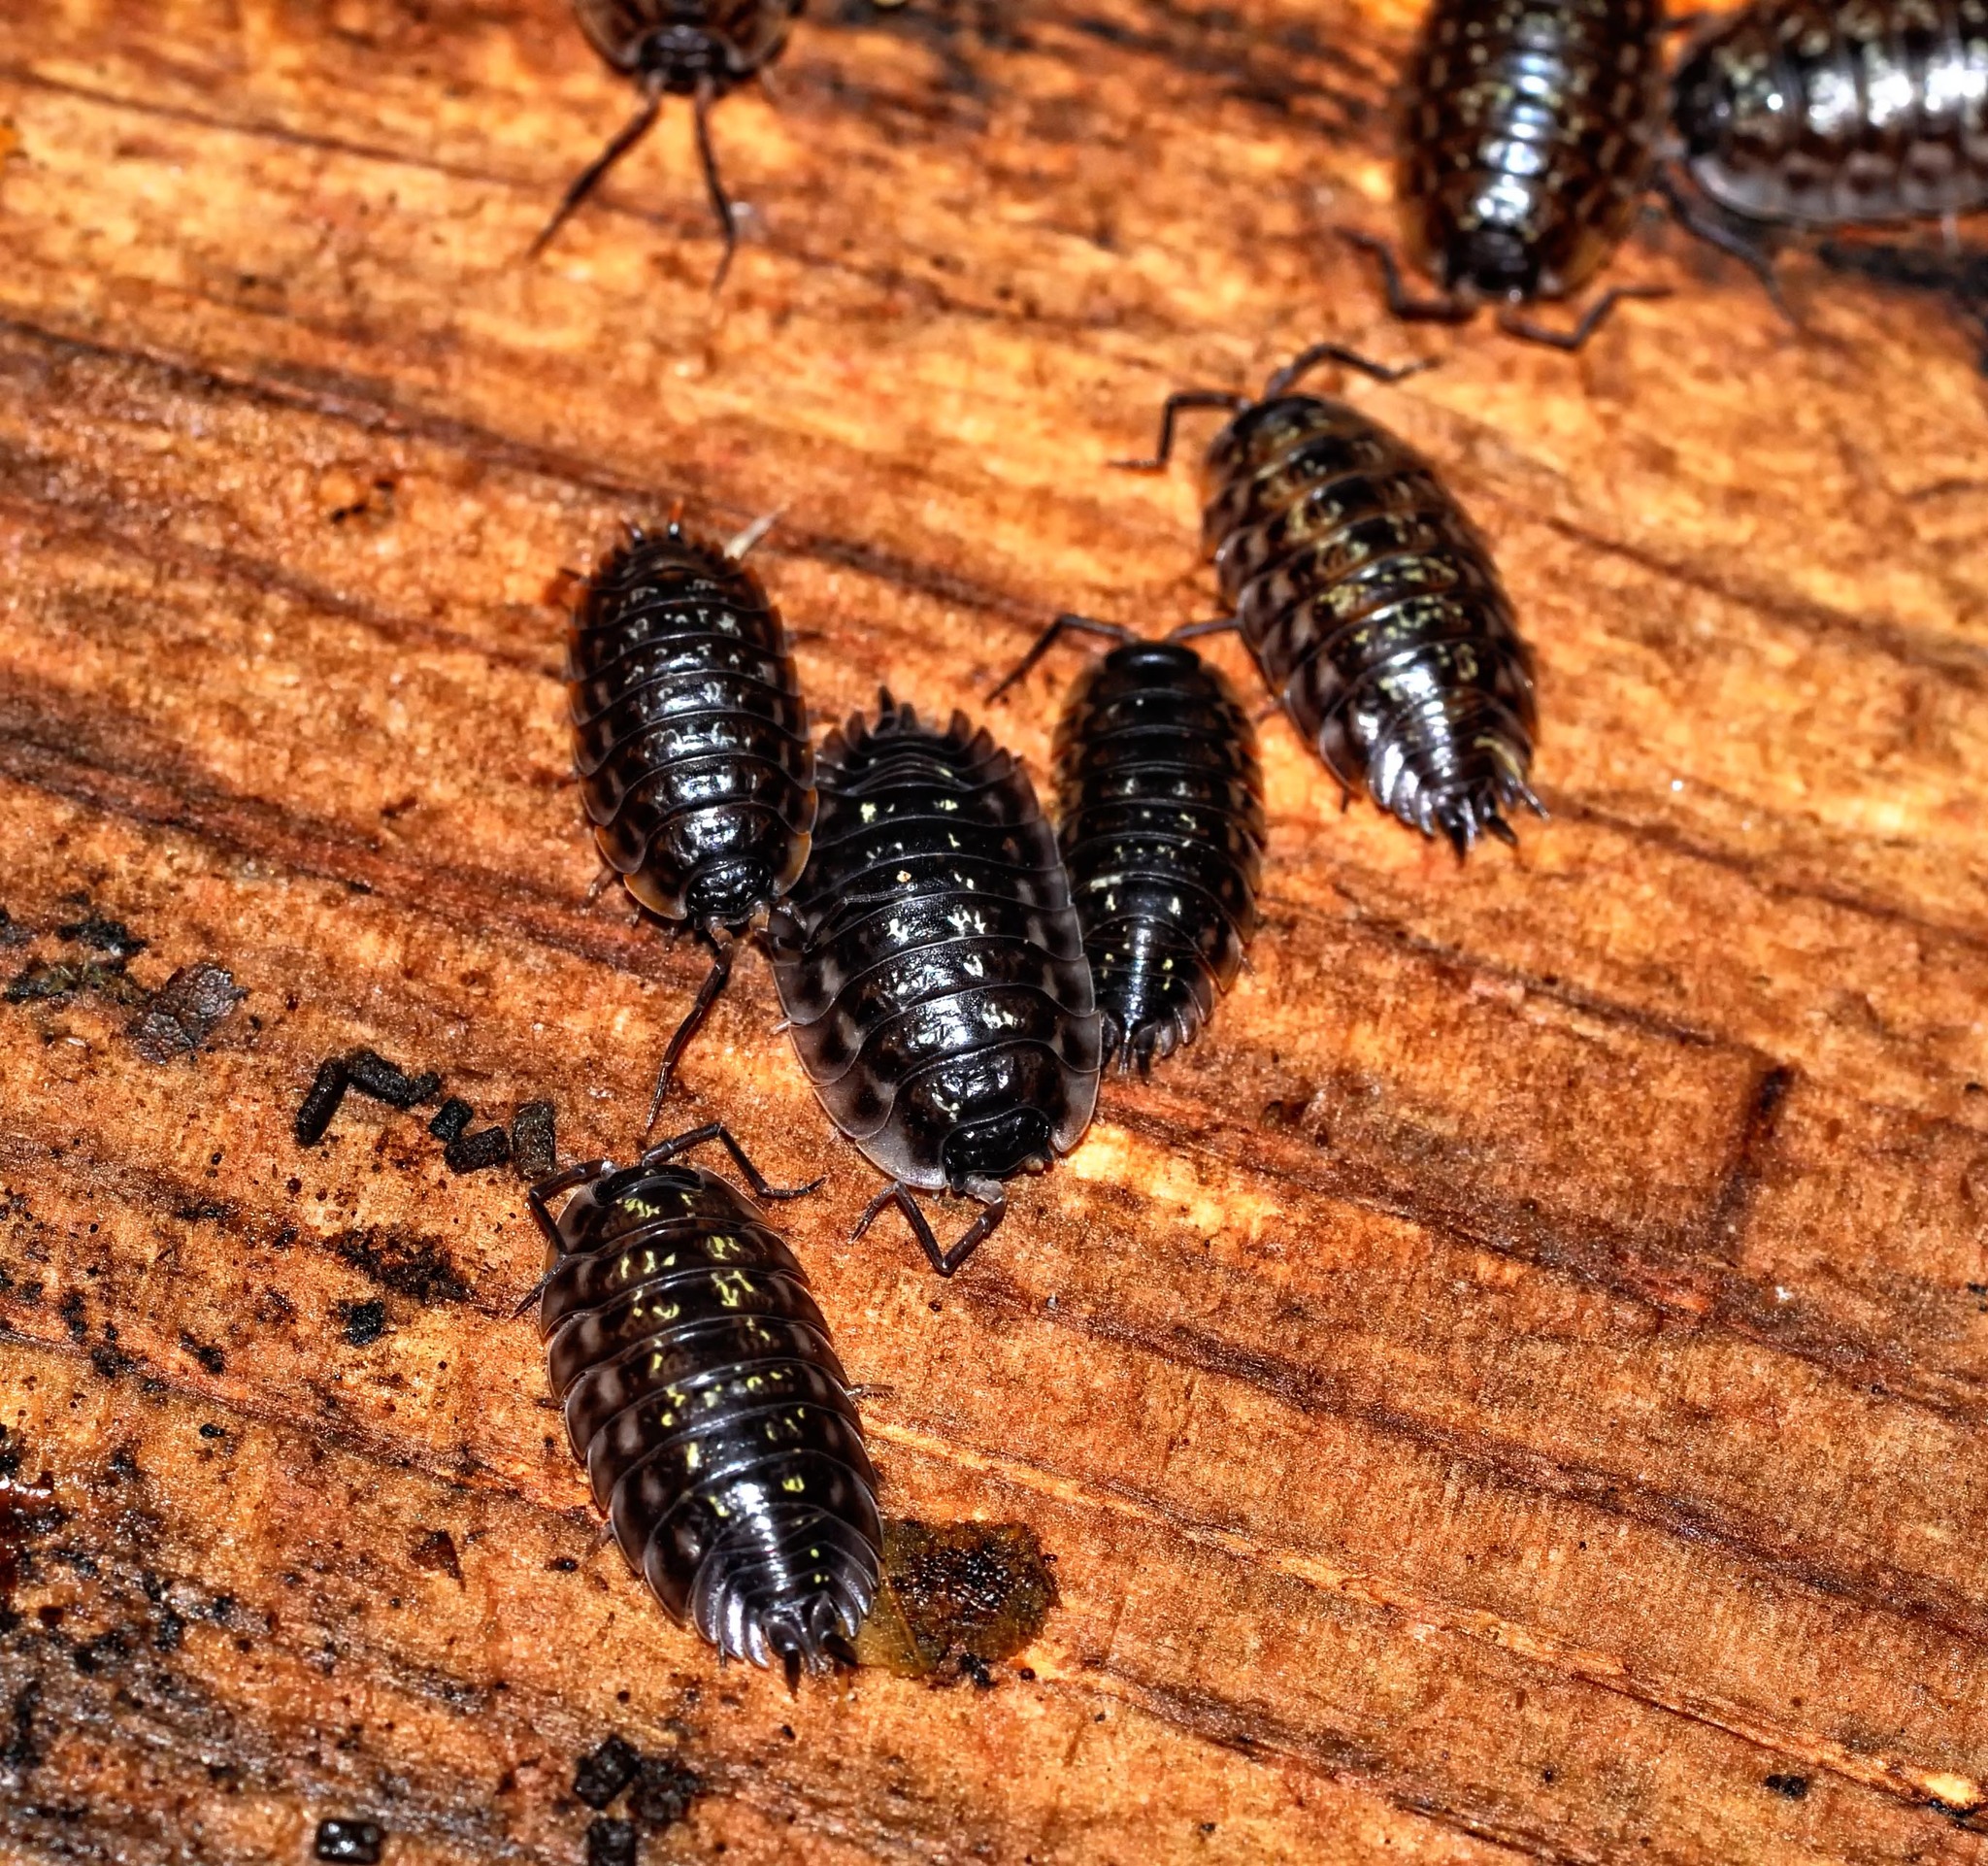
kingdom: Animalia
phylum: Arthropoda
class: Malacostraca
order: Isopoda
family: Oniscidae
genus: Oniscus
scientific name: Oniscus asellus
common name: Common shiny woodlouse
